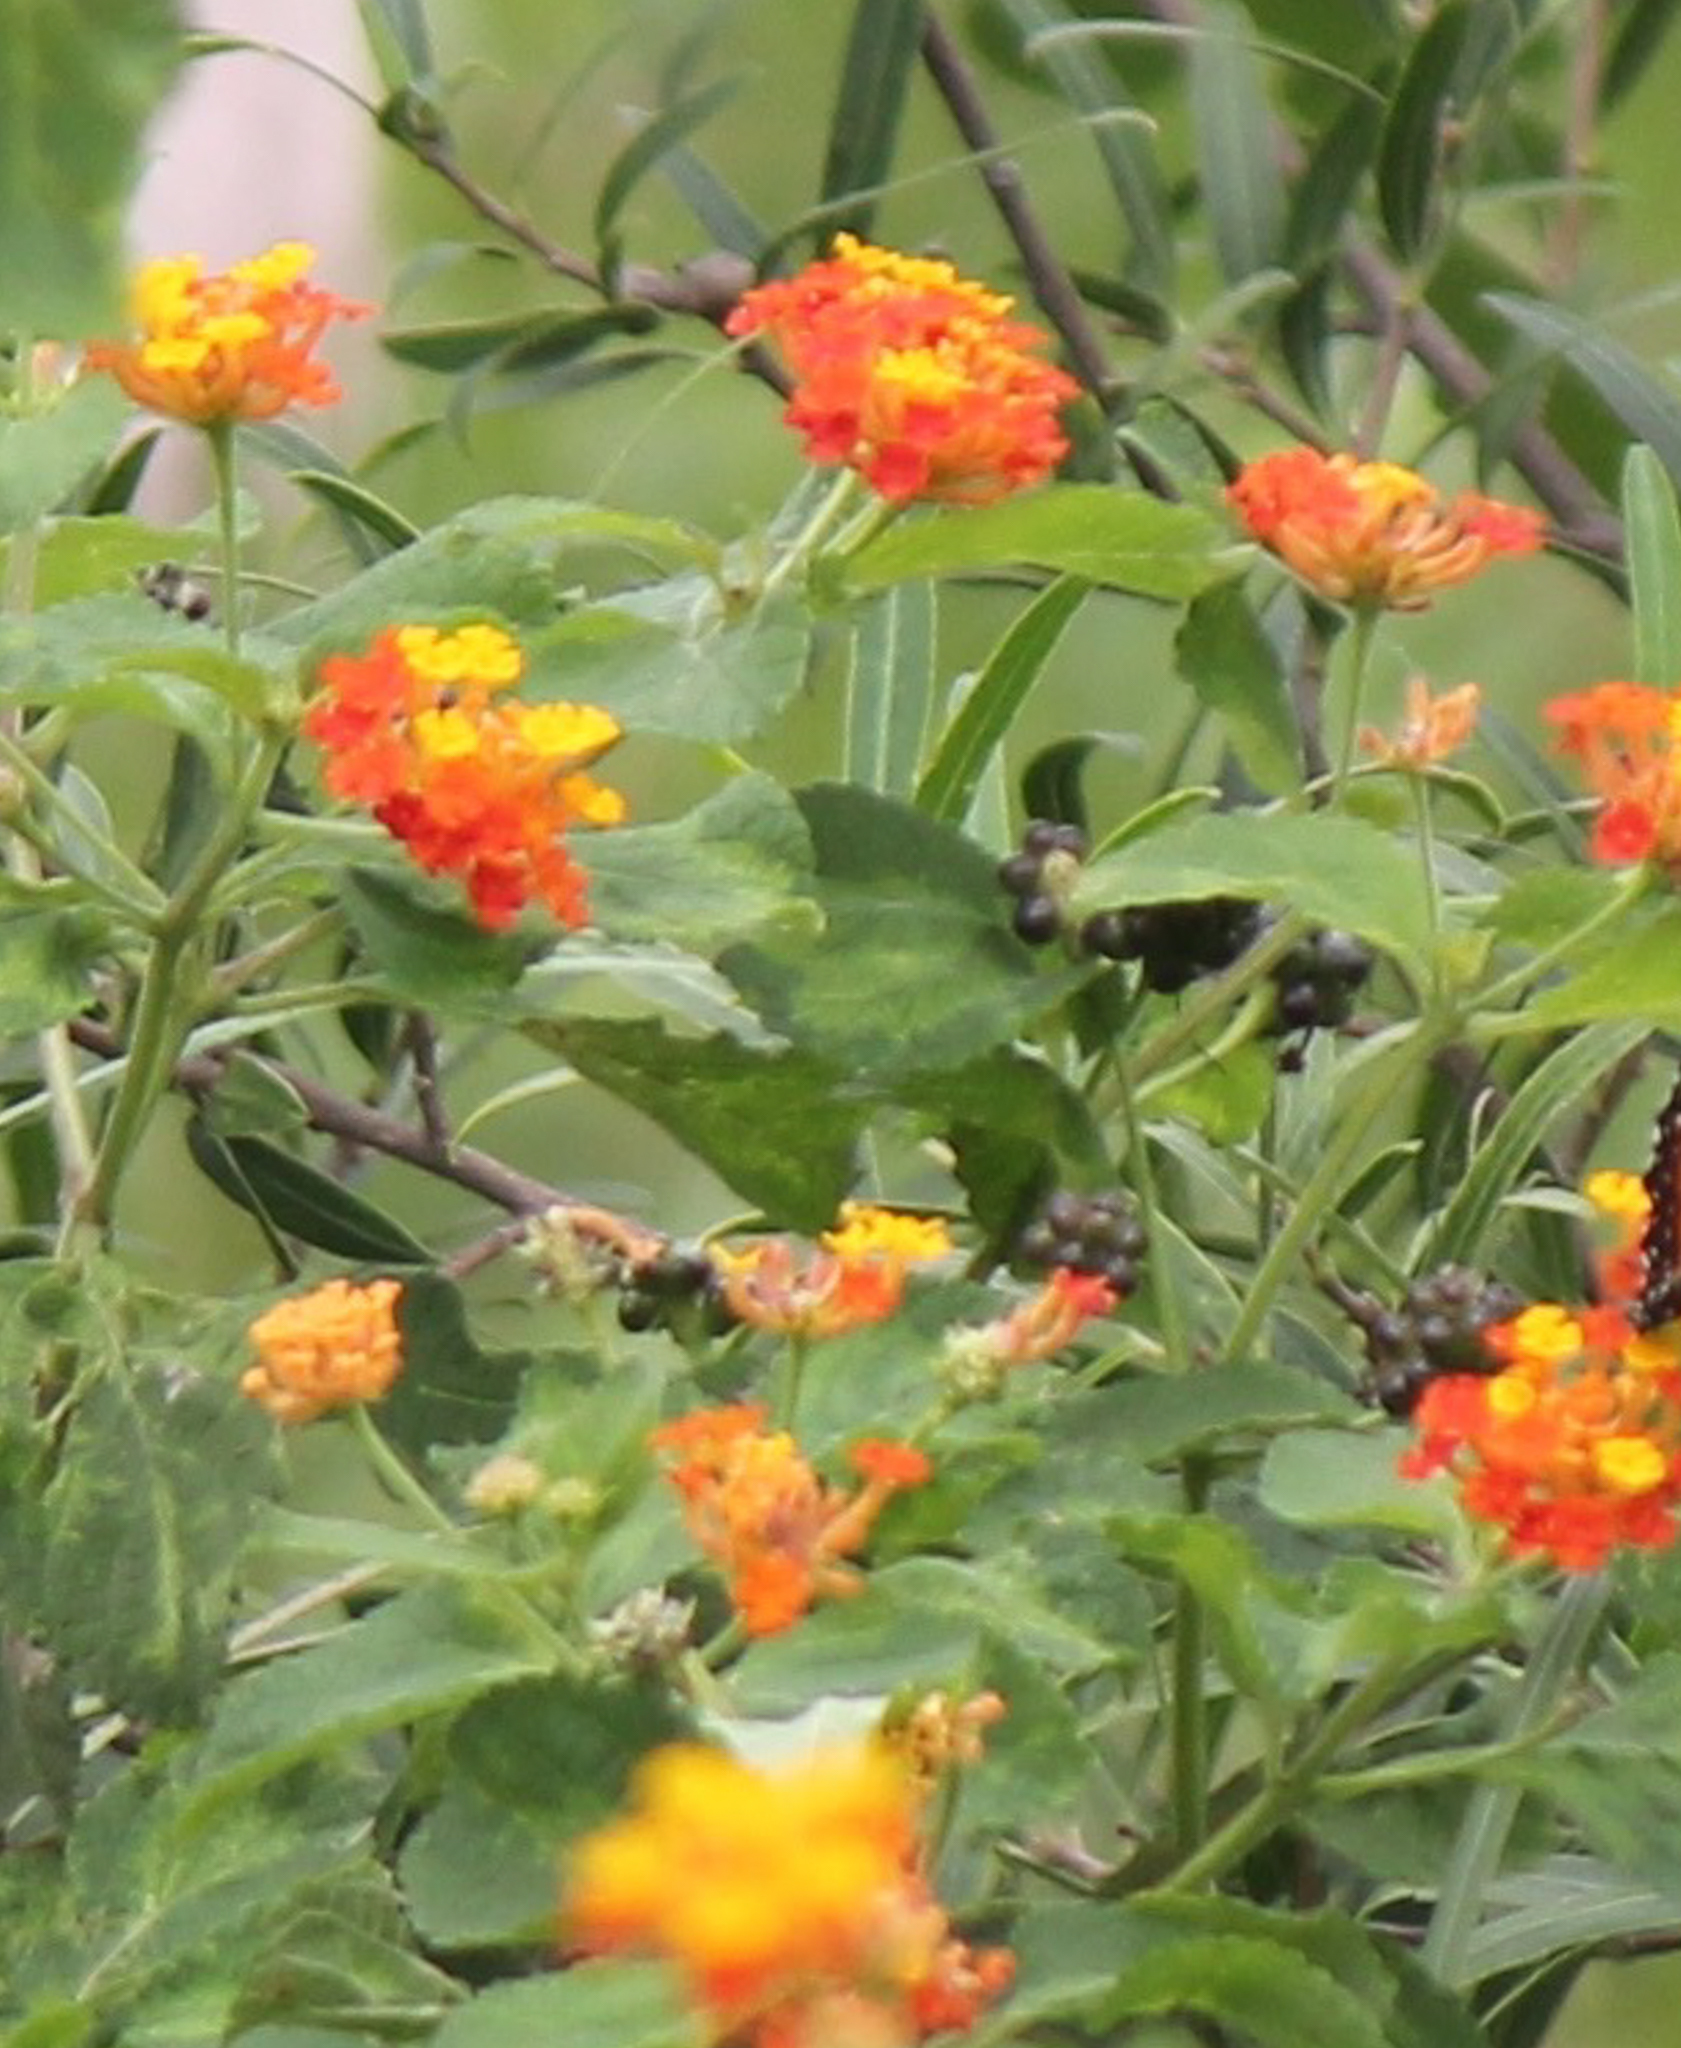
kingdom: Plantae
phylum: Tracheophyta
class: Magnoliopsida
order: Lamiales
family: Verbenaceae
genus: Lantana
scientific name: Lantana camara
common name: Lantana
